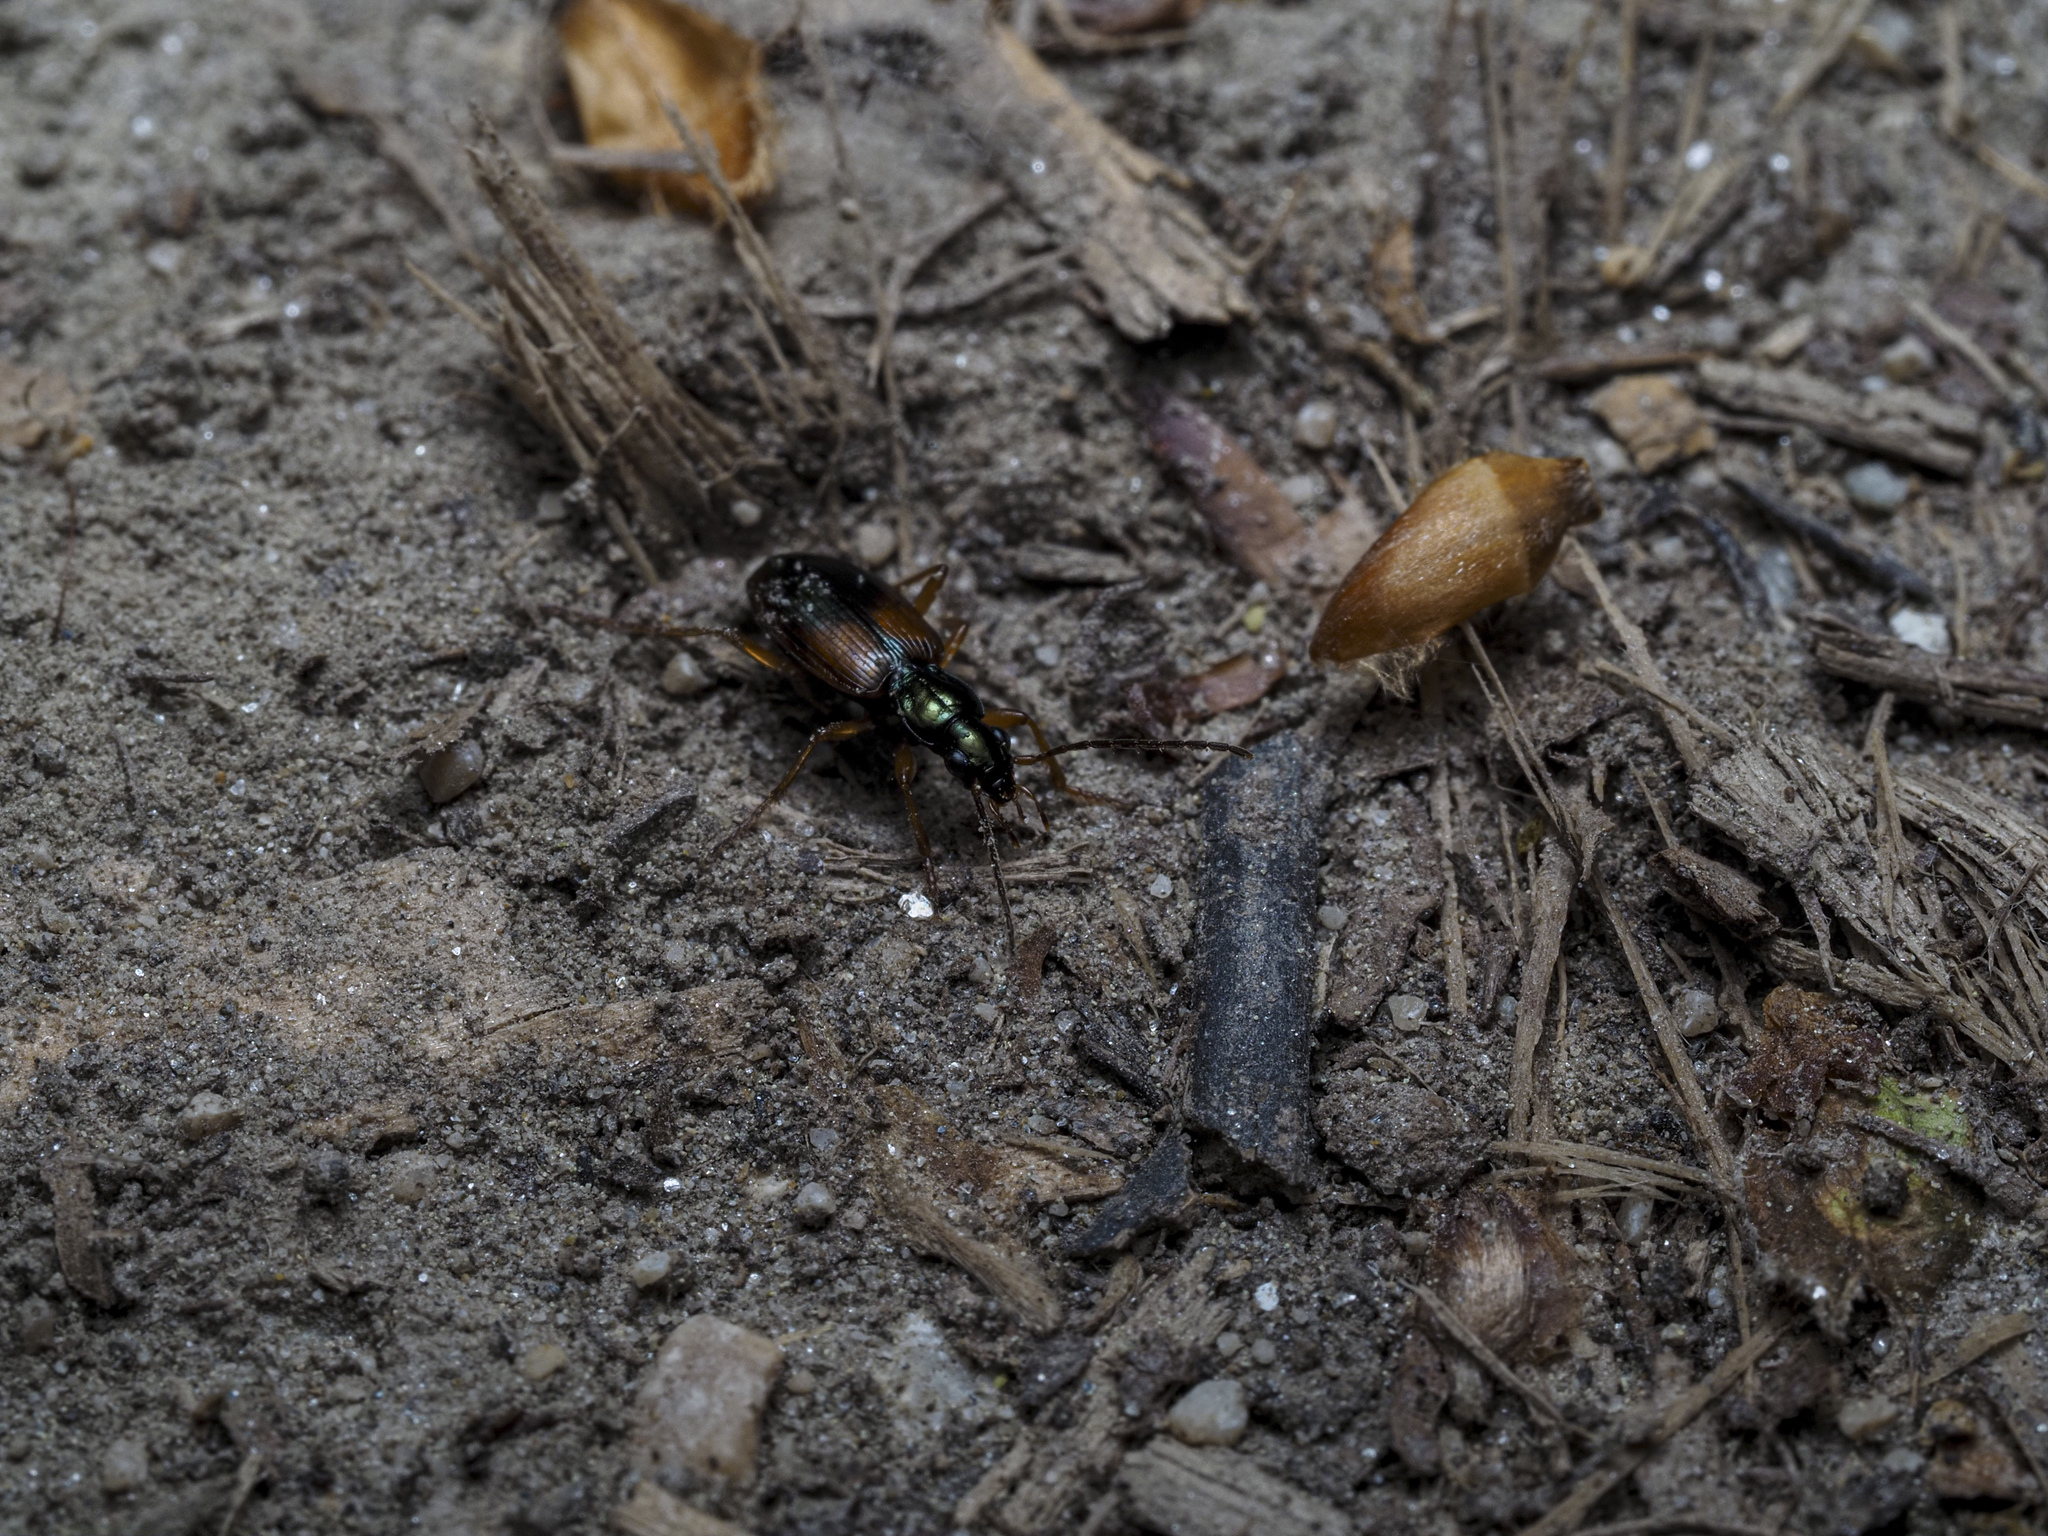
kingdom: Animalia
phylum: Arthropoda
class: Insecta
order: Coleoptera
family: Carabidae
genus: Anchomenus
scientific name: Anchomenus dorsalis
